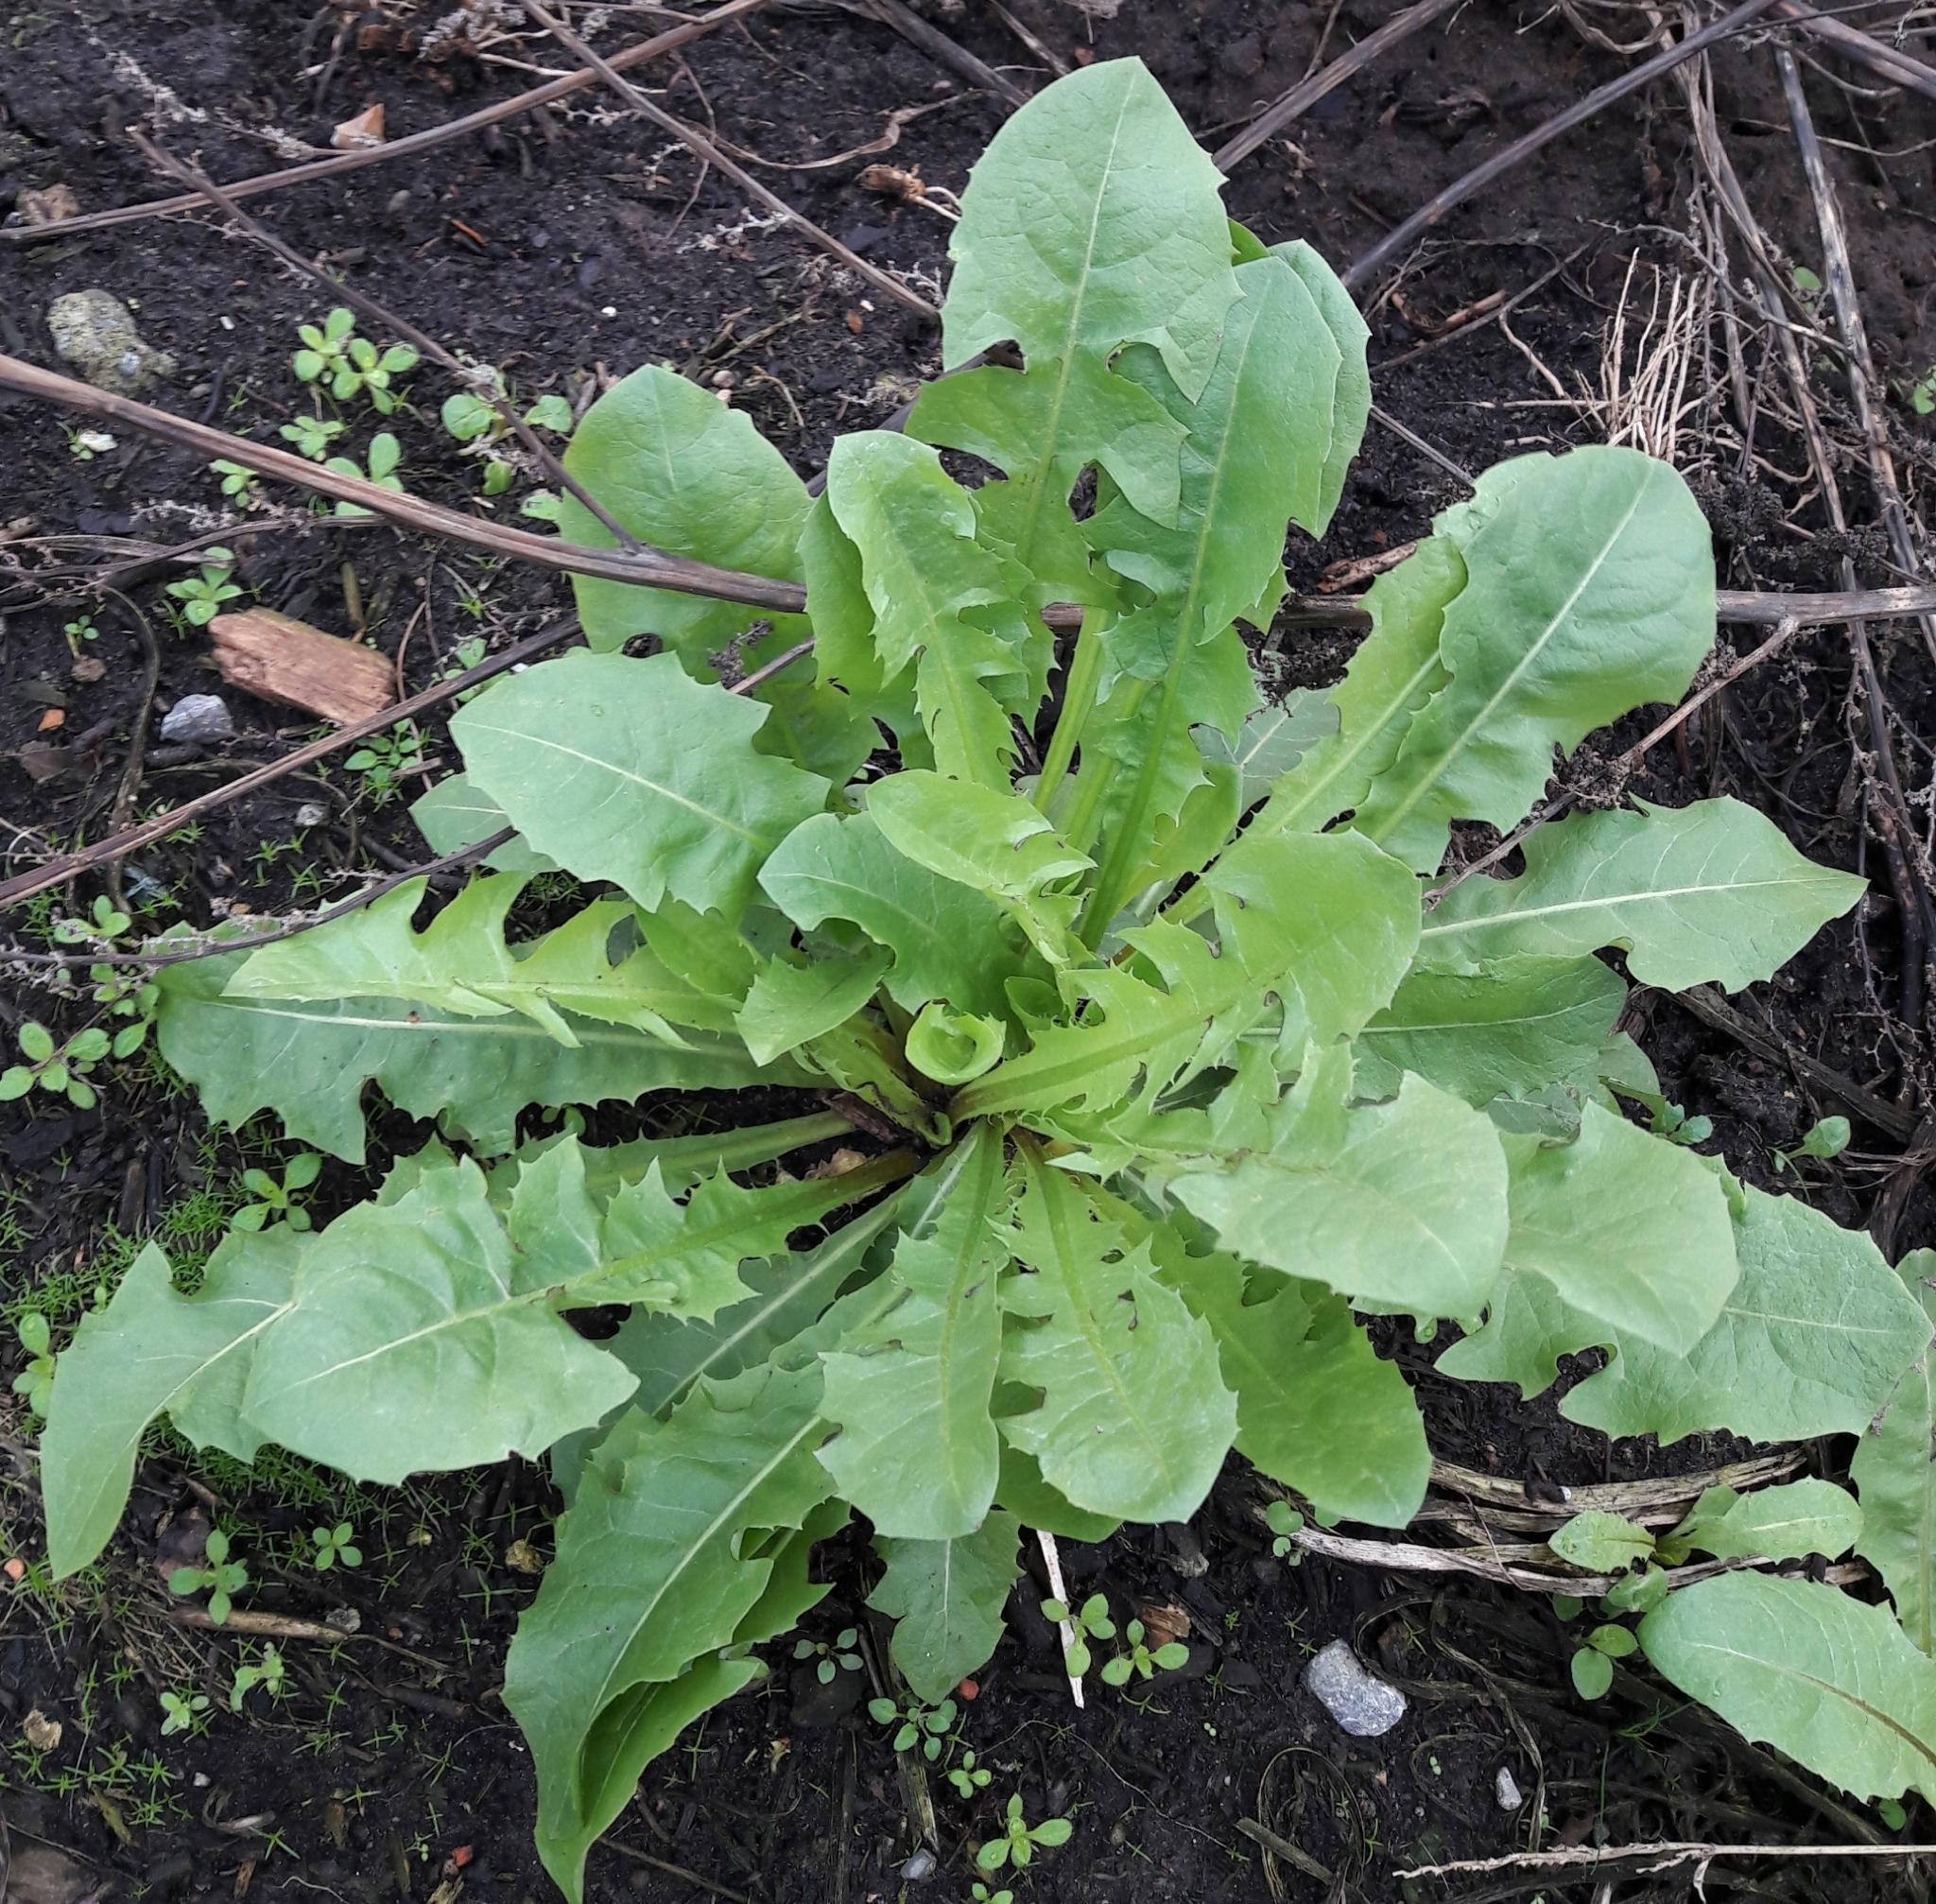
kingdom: Plantae
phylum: Tracheophyta
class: Magnoliopsida
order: Asterales
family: Asteraceae
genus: Taraxacum
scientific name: Taraxacum officinale
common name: Common dandelion
